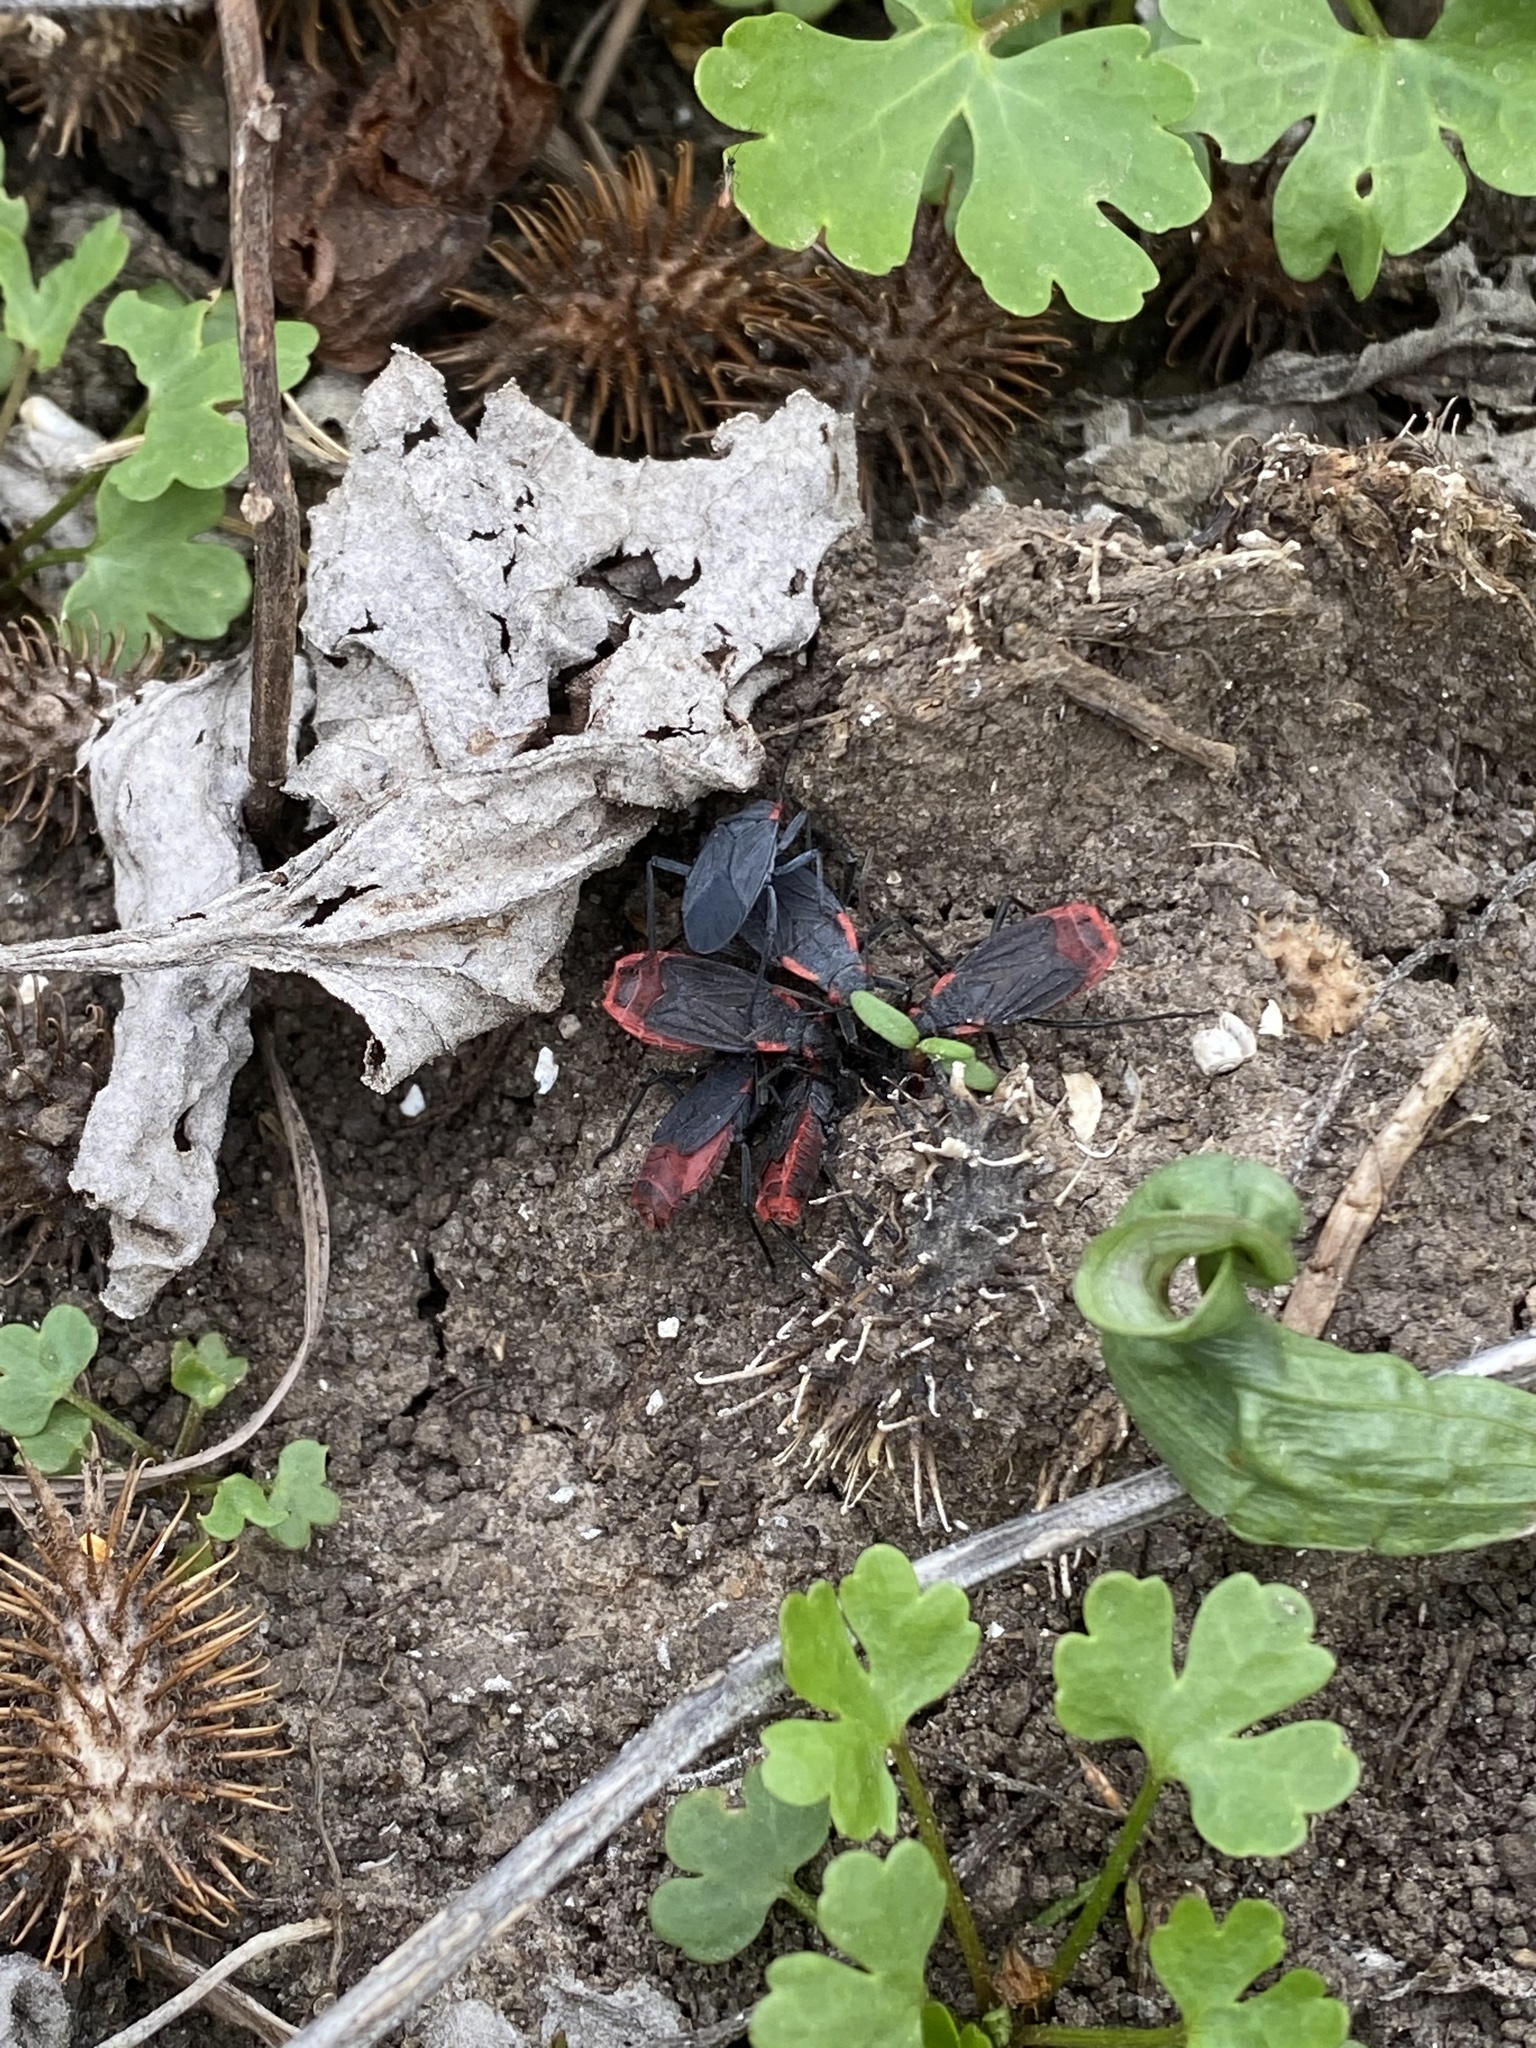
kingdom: Animalia
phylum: Arthropoda
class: Insecta
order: Hemiptera
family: Rhopalidae
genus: Jadera
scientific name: Jadera haematoloma
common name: Red-shouldered bug
